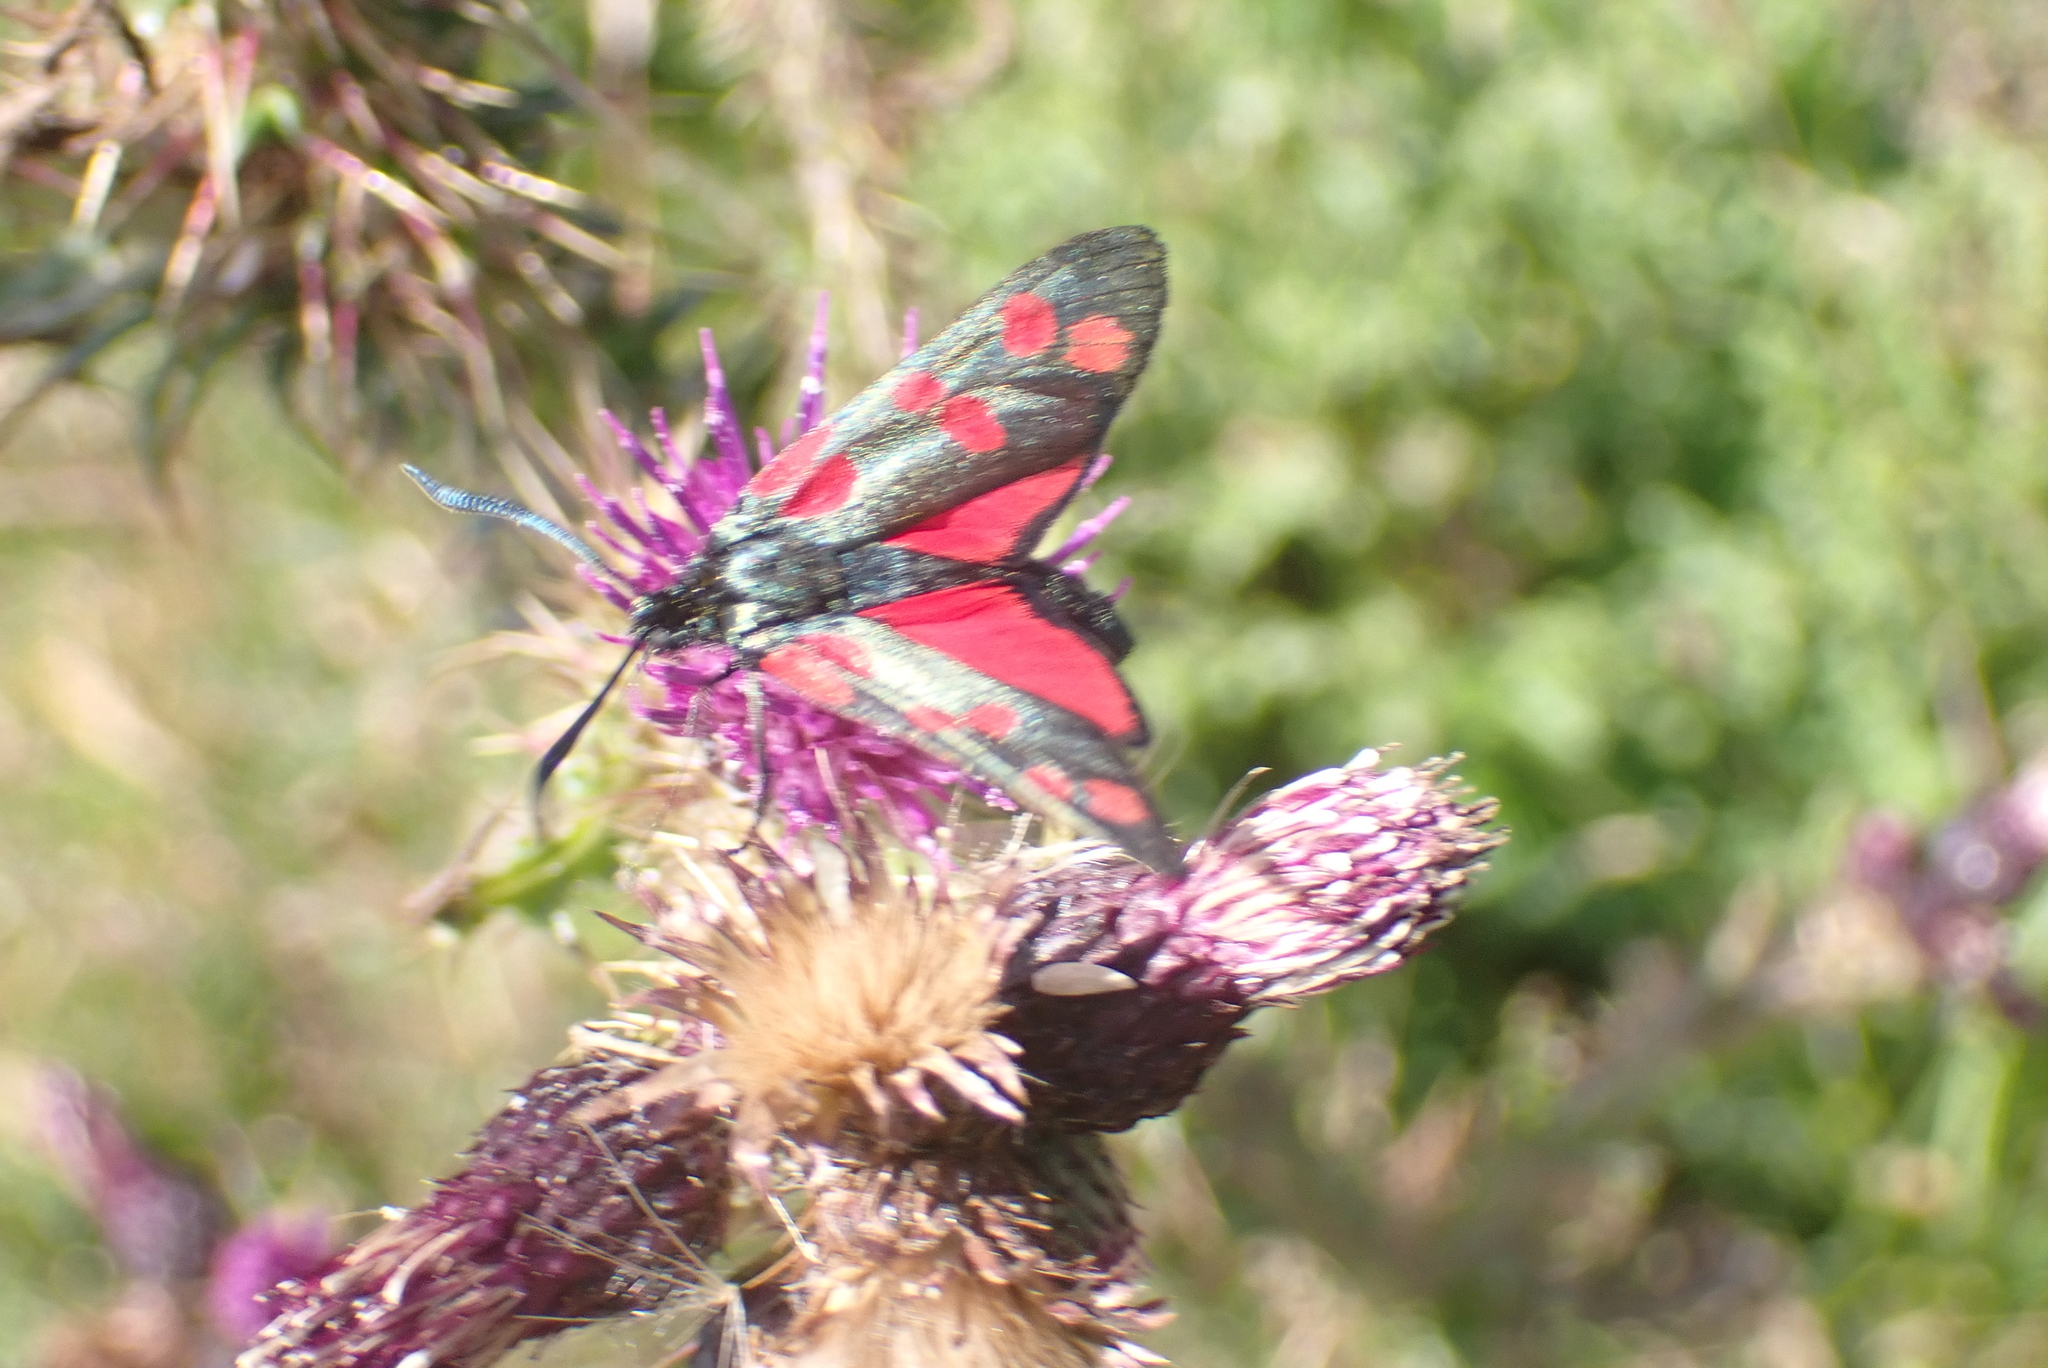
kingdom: Animalia
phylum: Arthropoda
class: Insecta
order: Lepidoptera
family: Zygaenidae
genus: Zygaena
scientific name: Zygaena filipendulae
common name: Six-spot burnet
